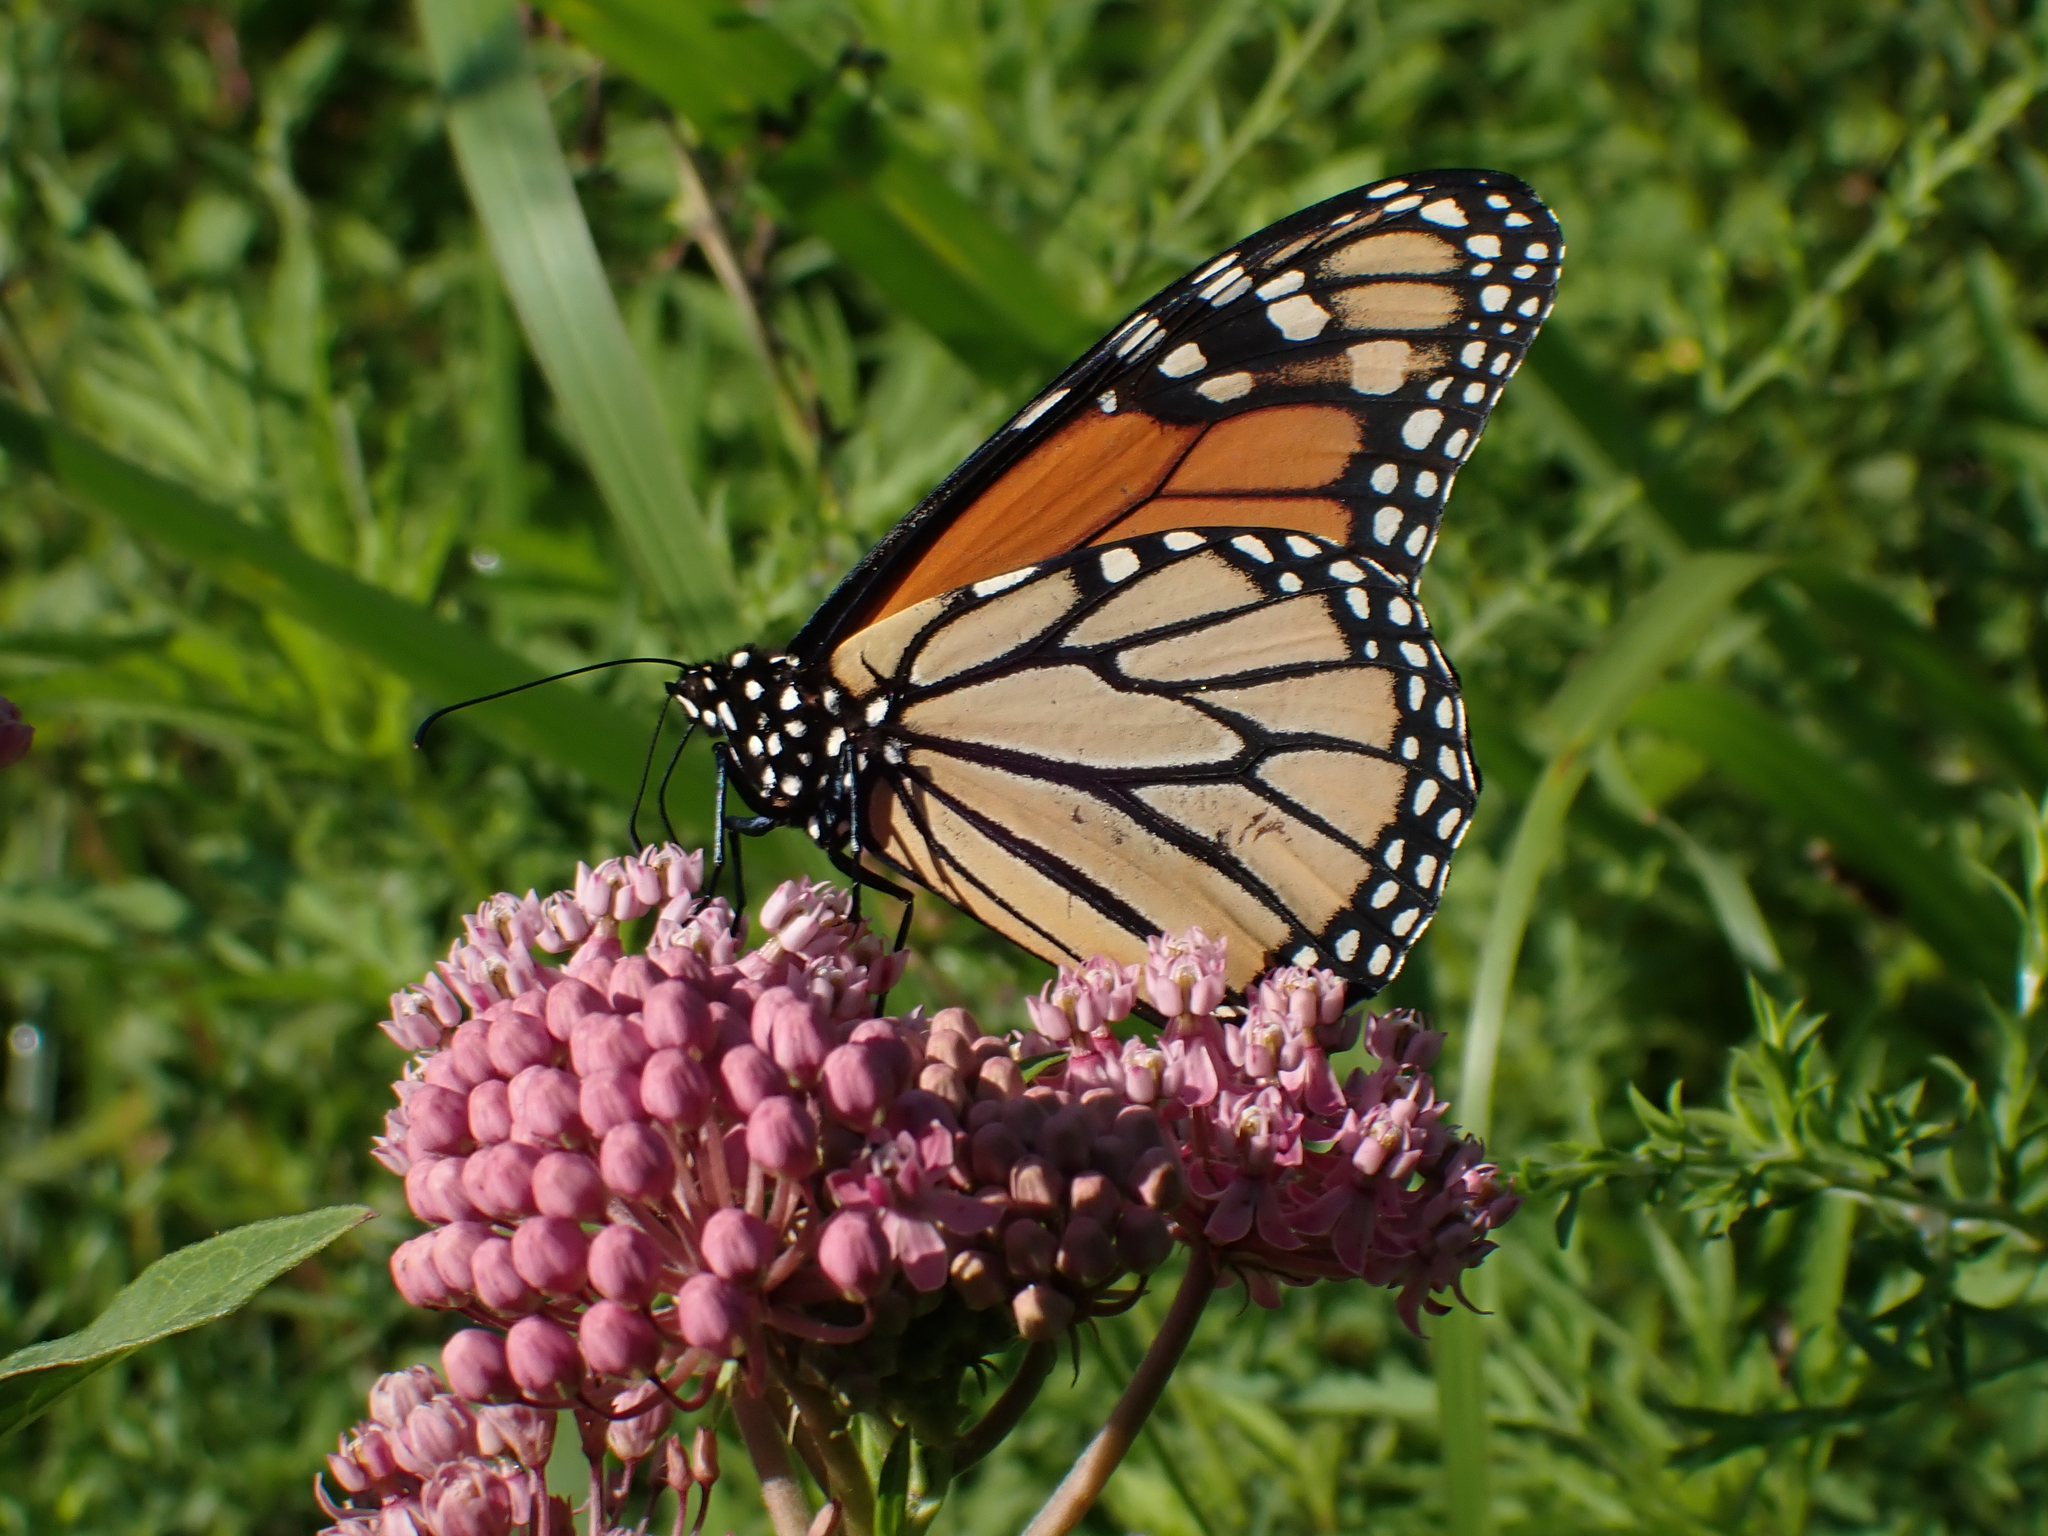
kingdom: Animalia
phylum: Arthropoda
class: Insecta
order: Lepidoptera
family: Nymphalidae
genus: Danaus
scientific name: Danaus plexippus
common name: Monarch
